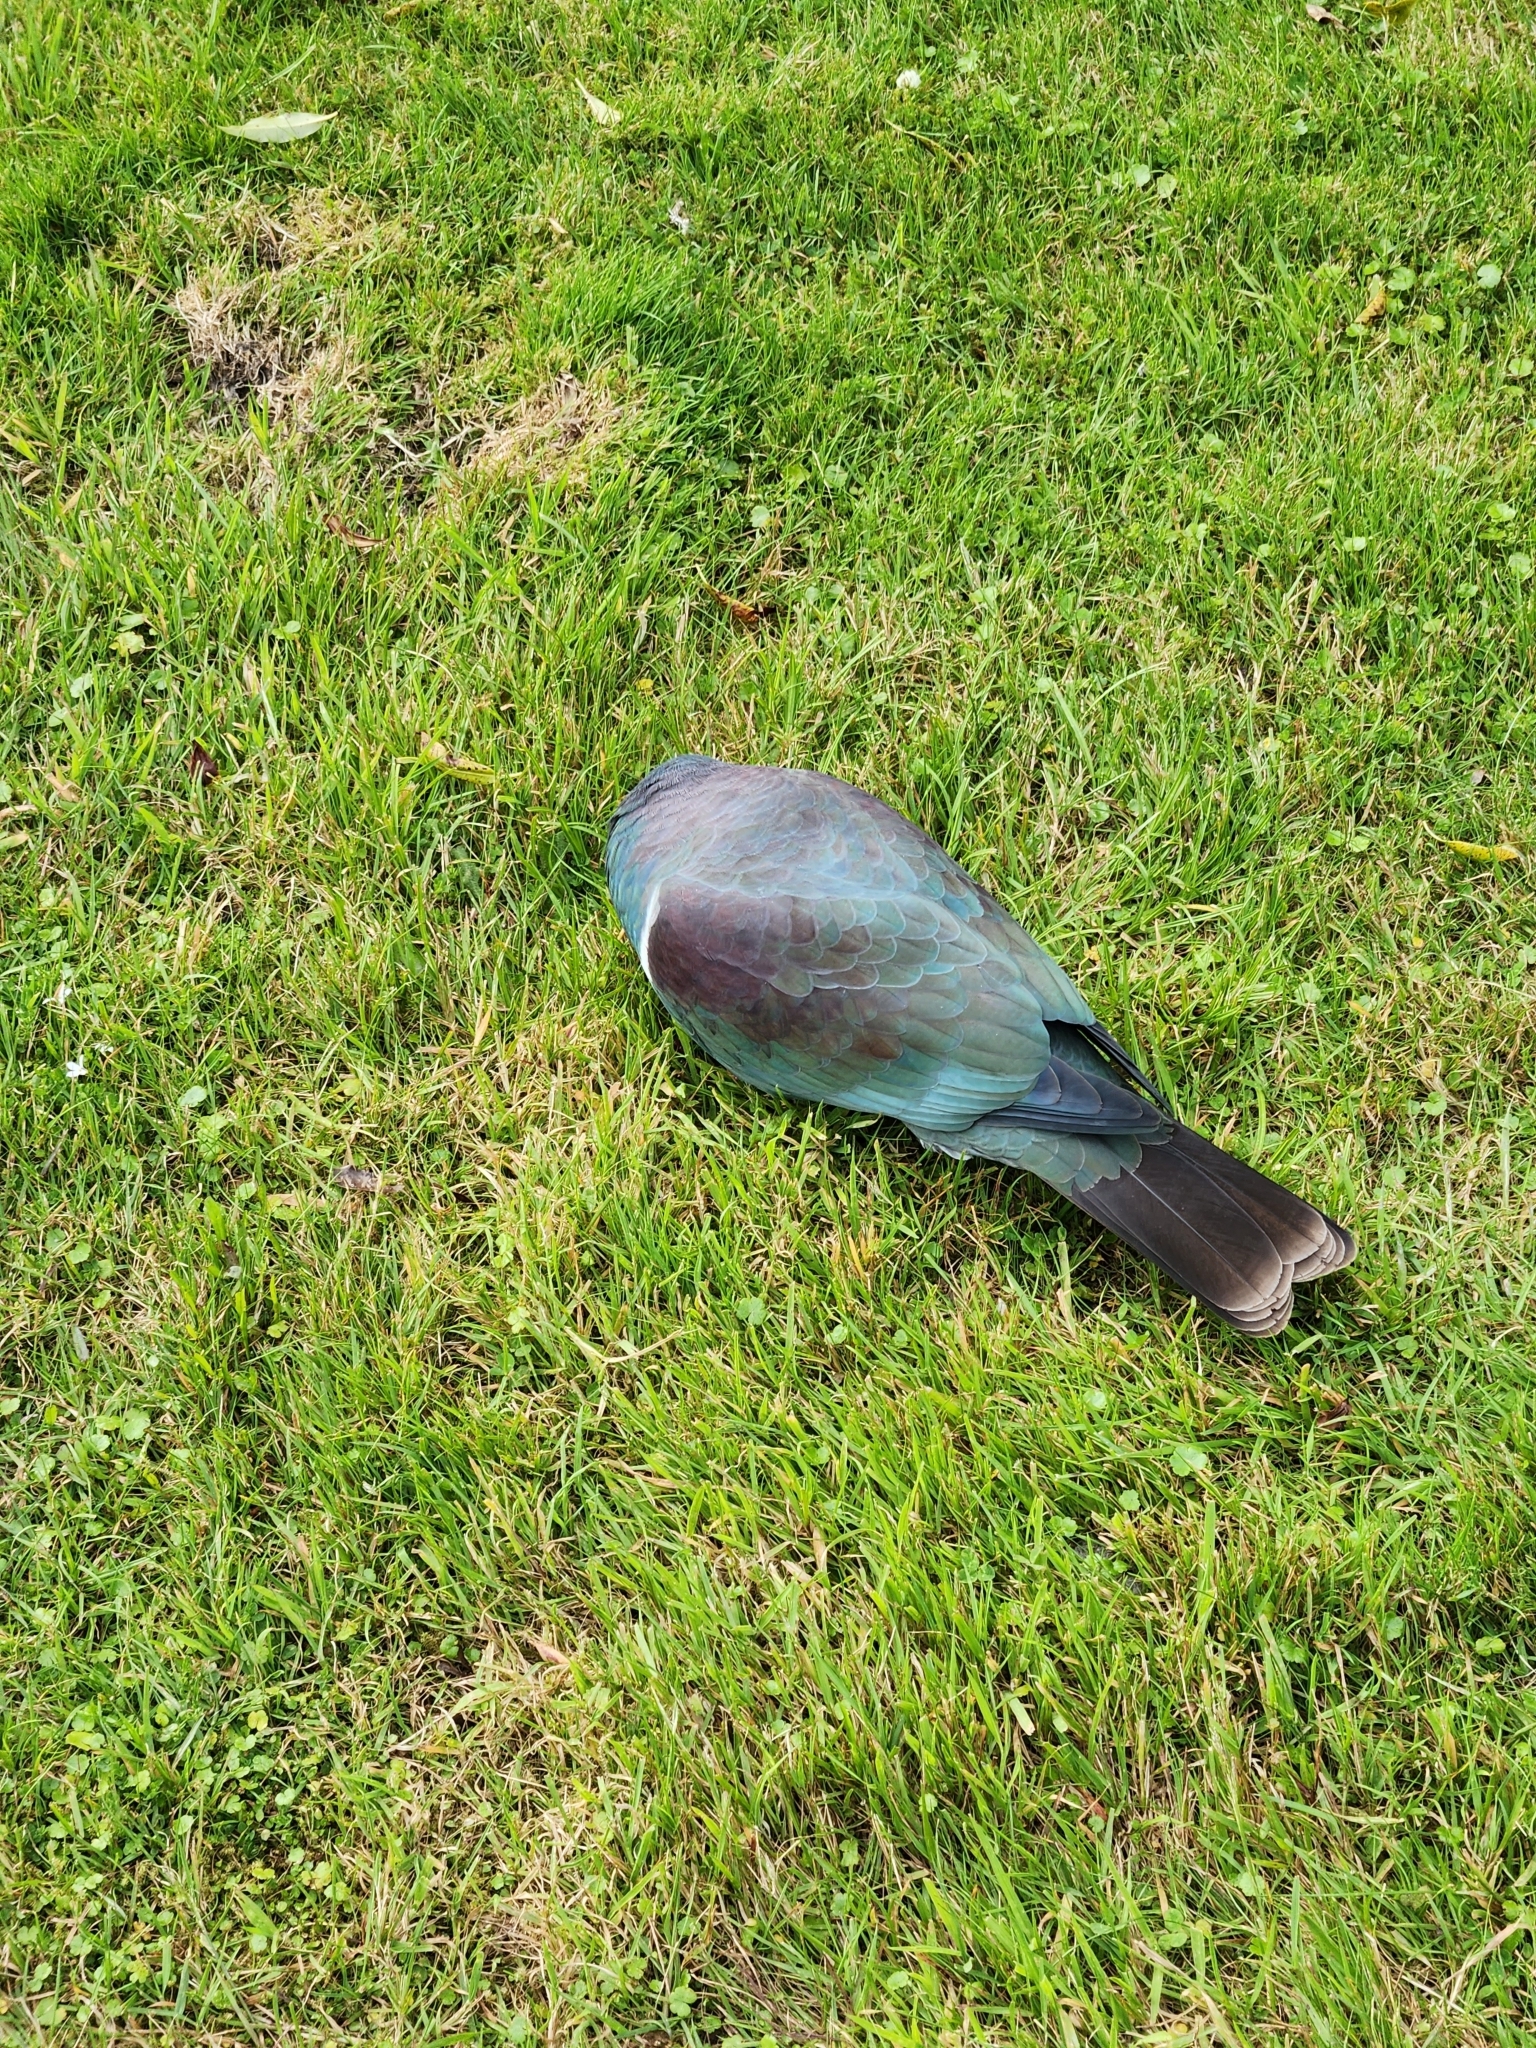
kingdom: Animalia
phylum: Chordata
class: Aves
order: Columbiformes
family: Columbidae
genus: Hemiphaga
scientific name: Hemiphaga novaeseelandiae
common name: New zealand pigeon
